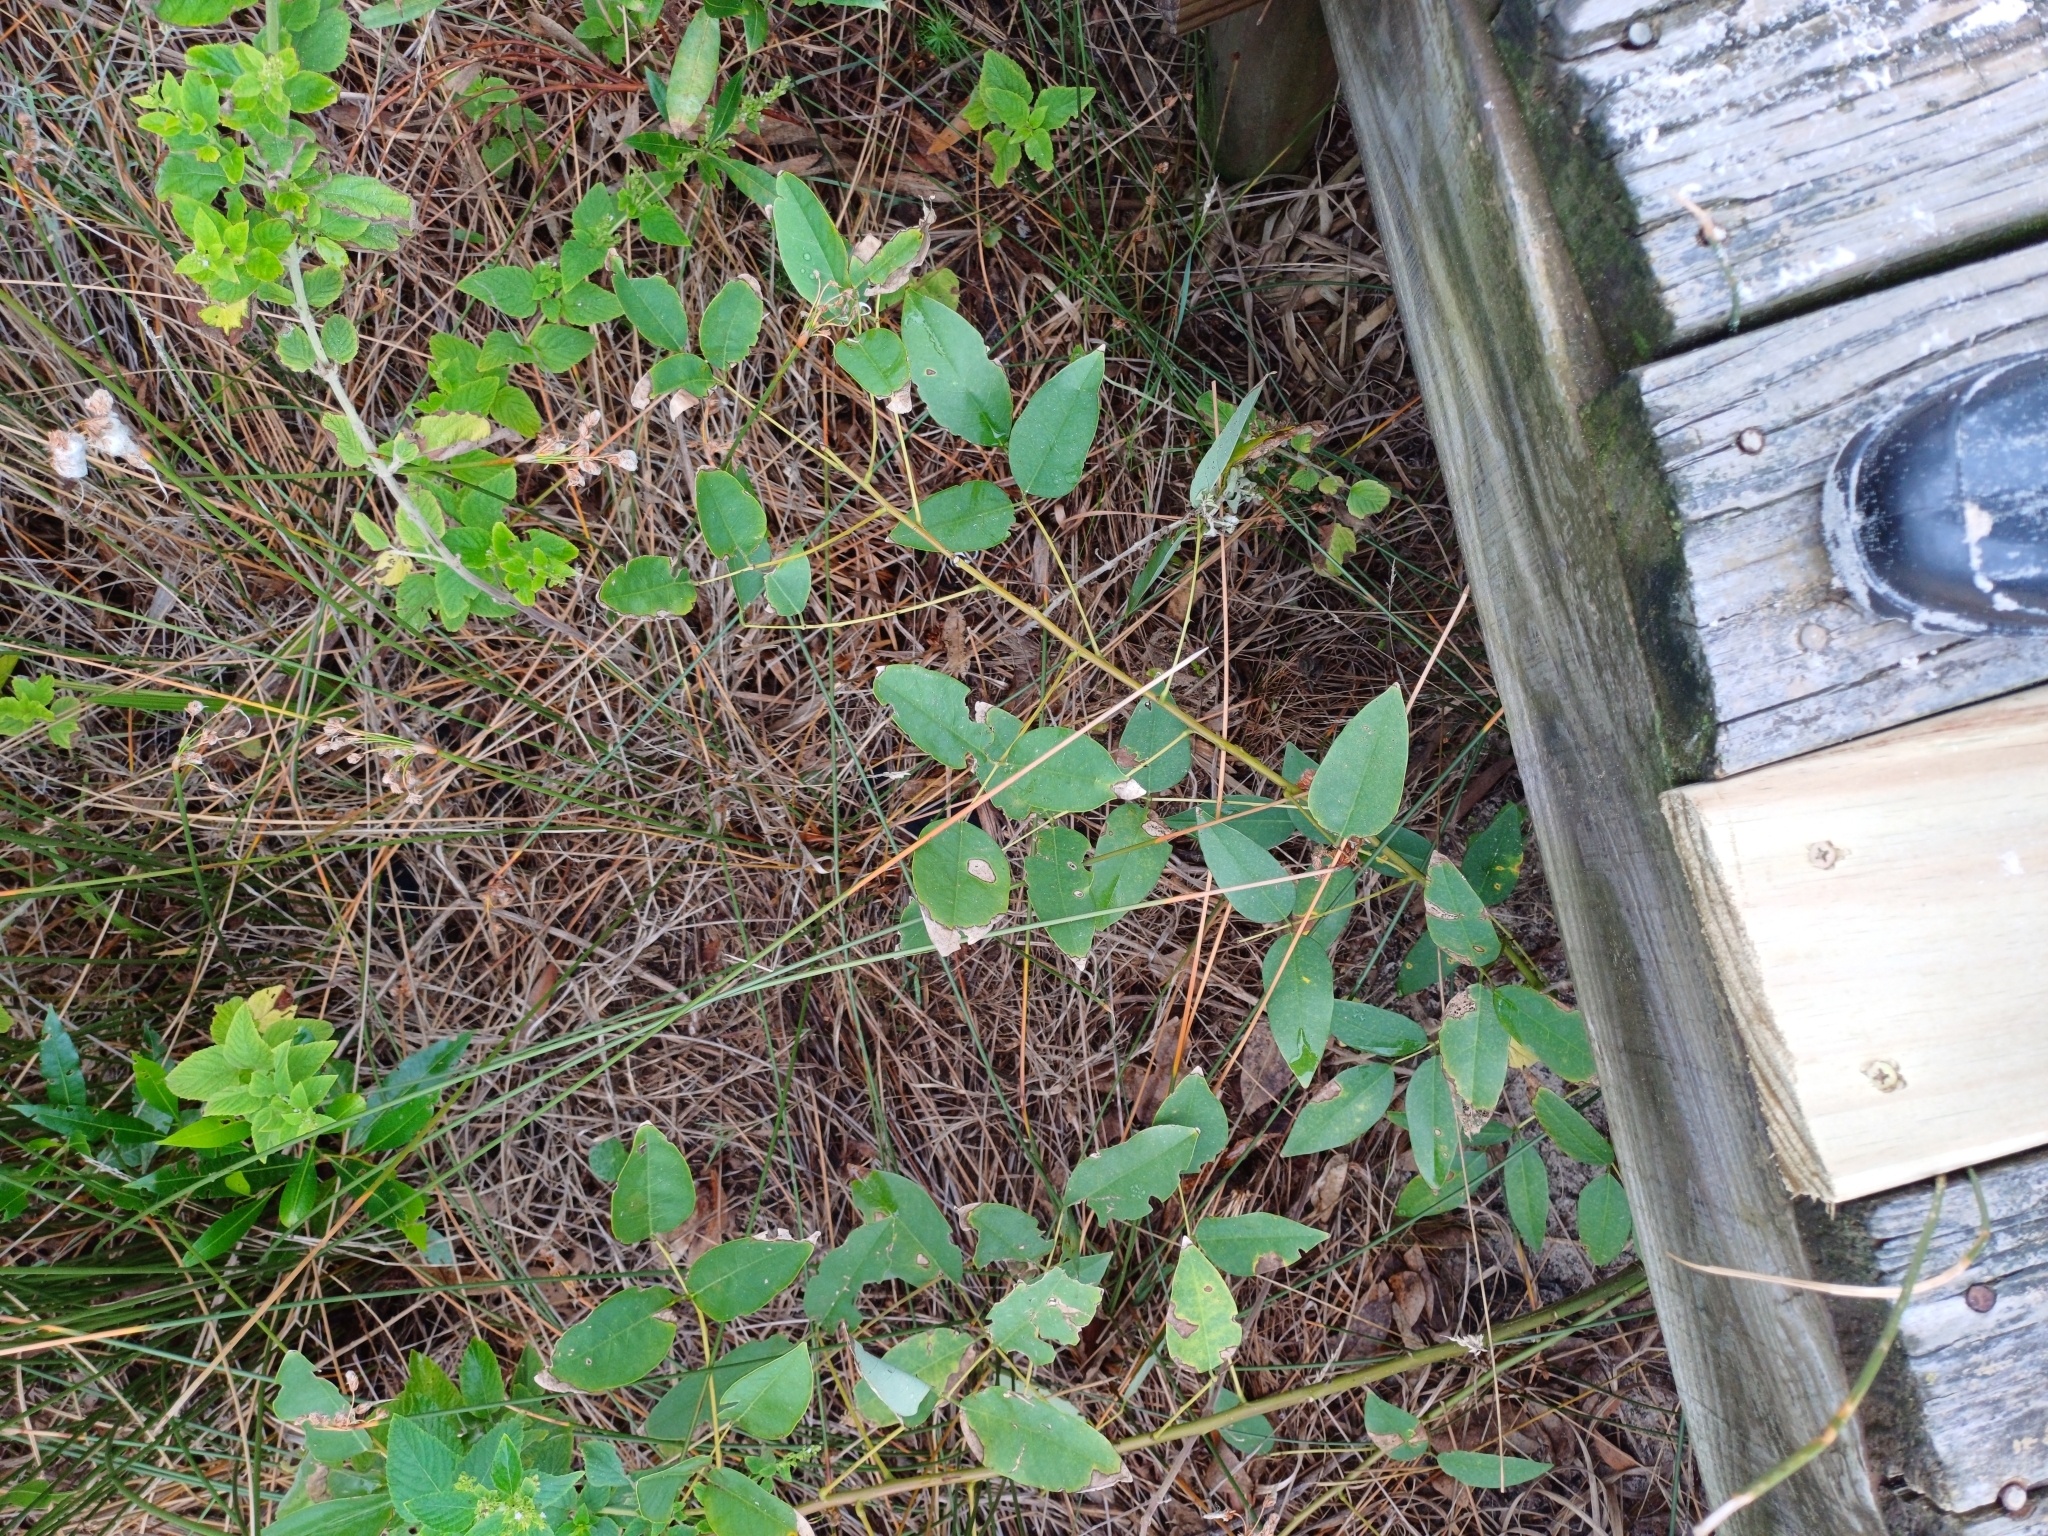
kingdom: Plantae
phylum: Tracheophyta
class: Magnoliopsida
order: Fabales
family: Fabaceae
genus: Erythrina
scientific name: Erythrina crista-galli
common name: Cockspur coral tree
